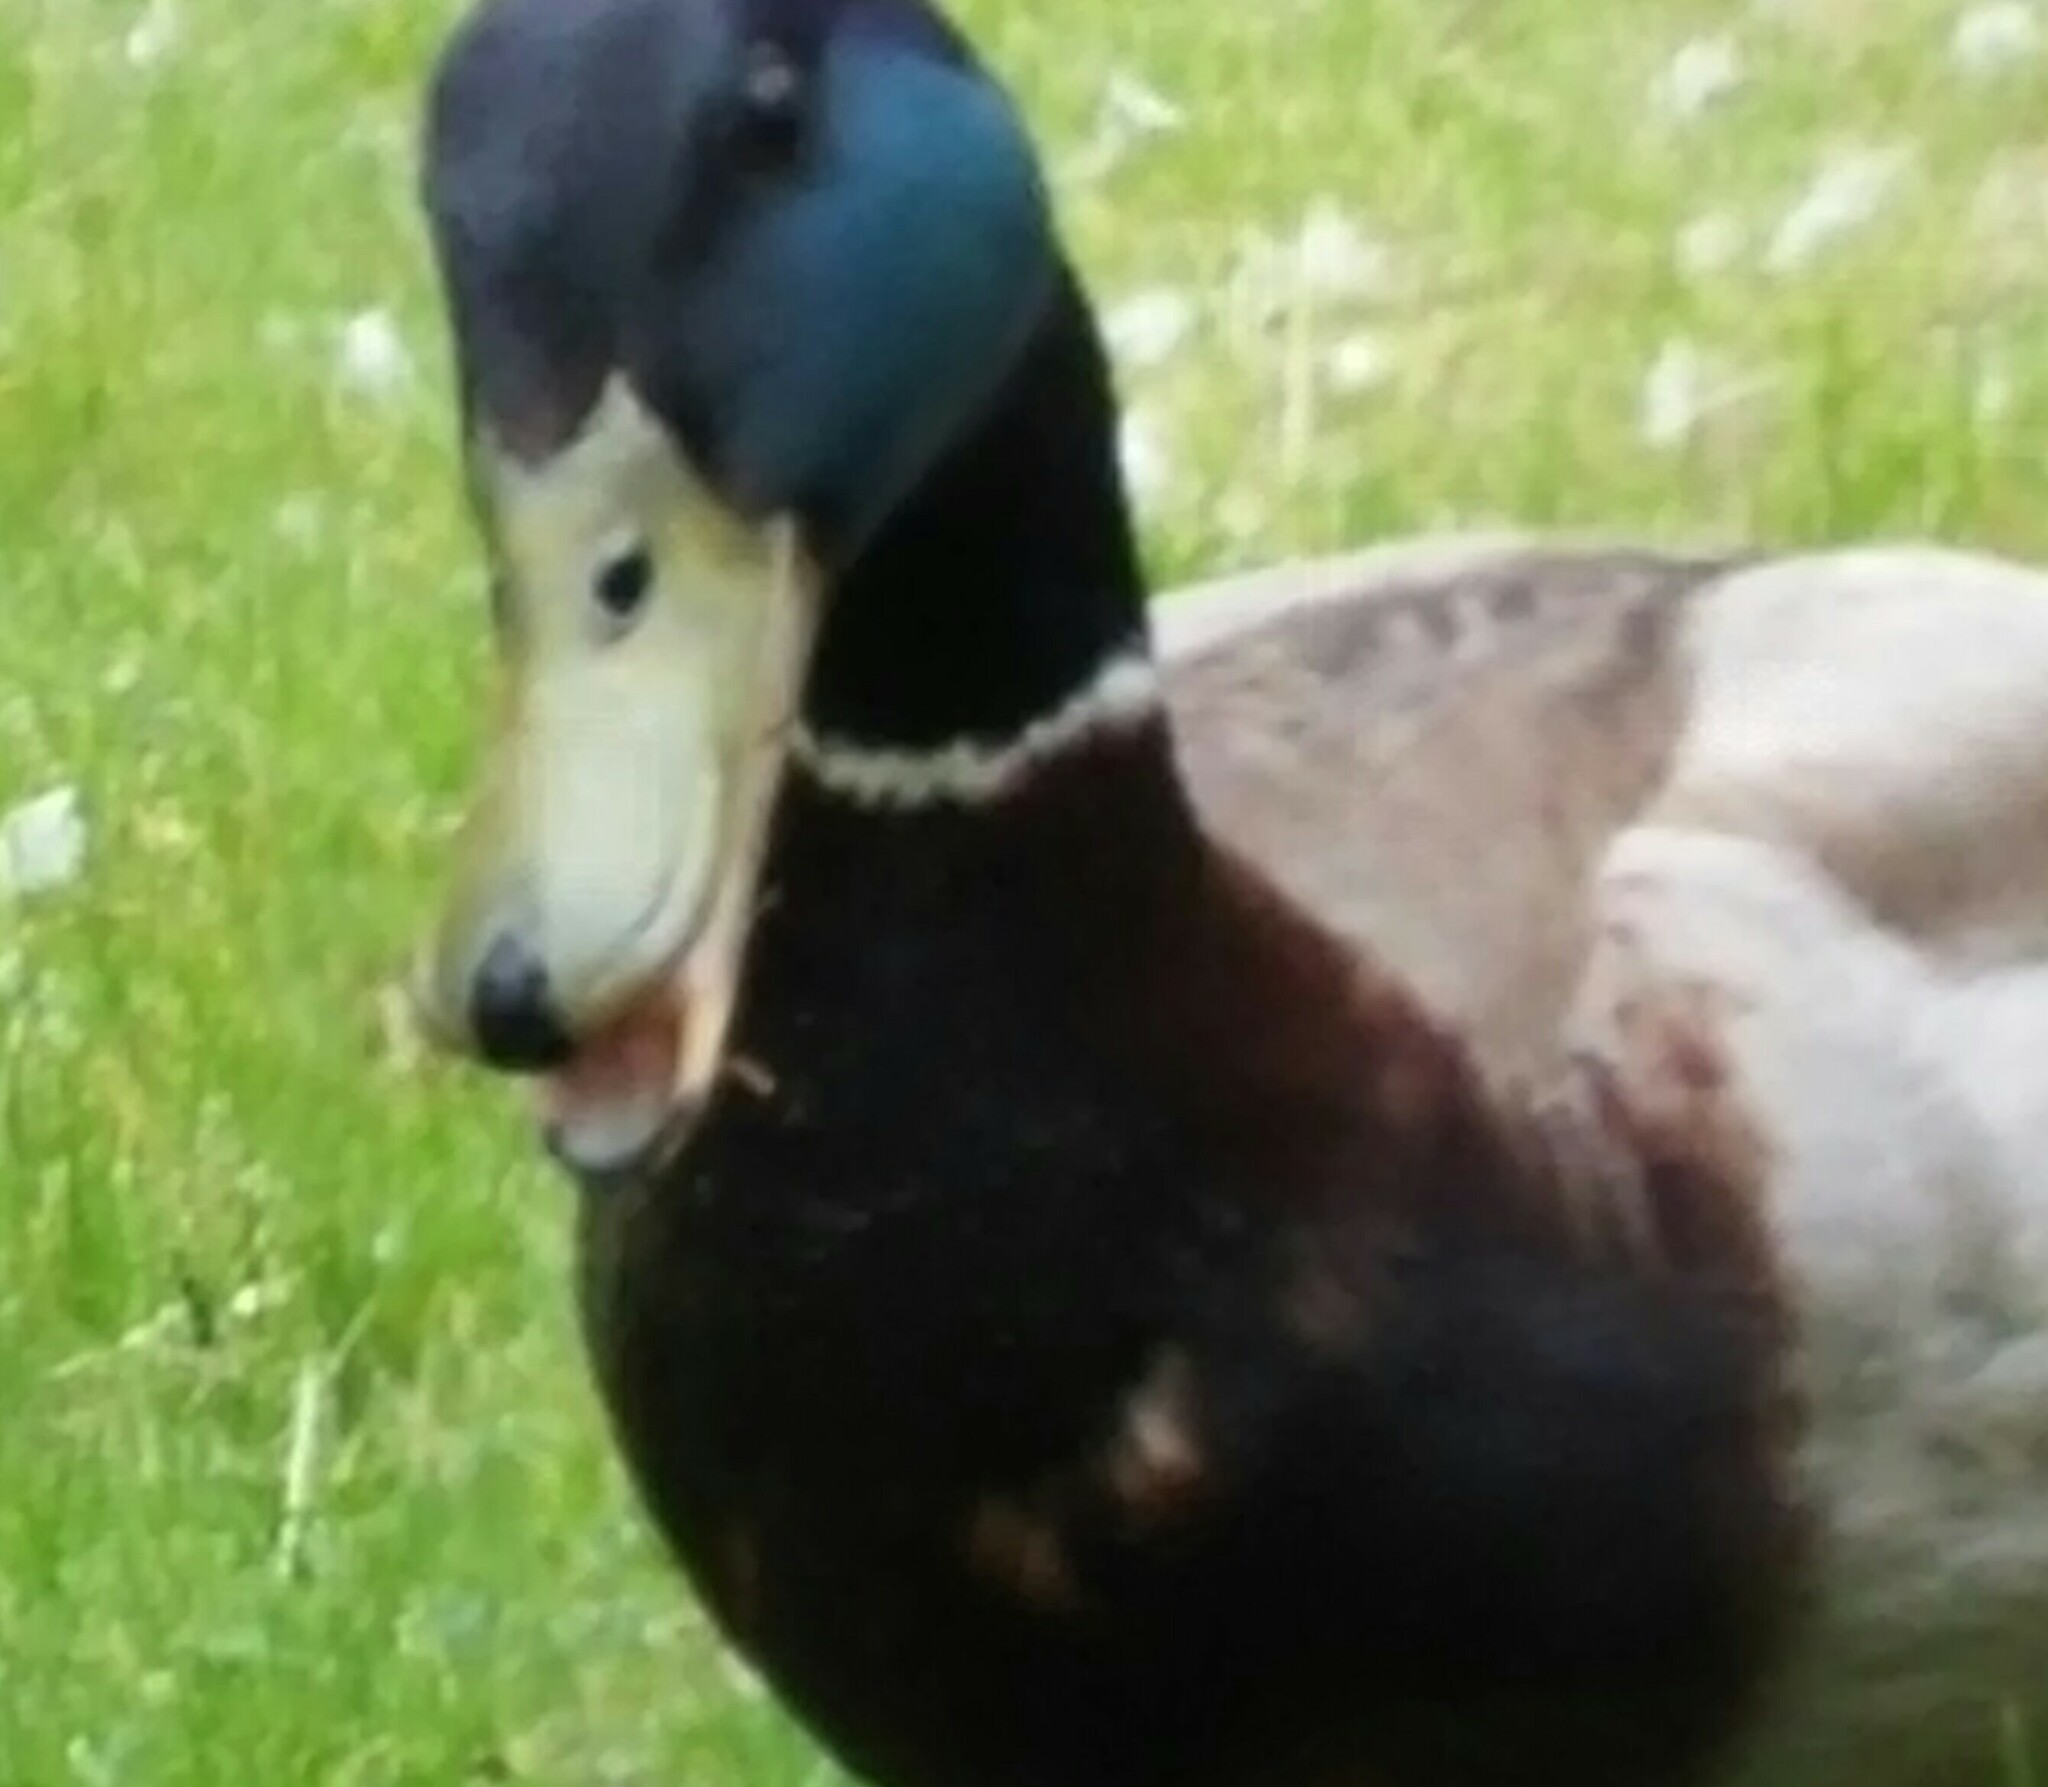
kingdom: Animalia
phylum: Chordata
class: Aves
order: Anseriformes
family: Anatidae
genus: Anas
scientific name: Anas platyrhynchos
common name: Mallard
